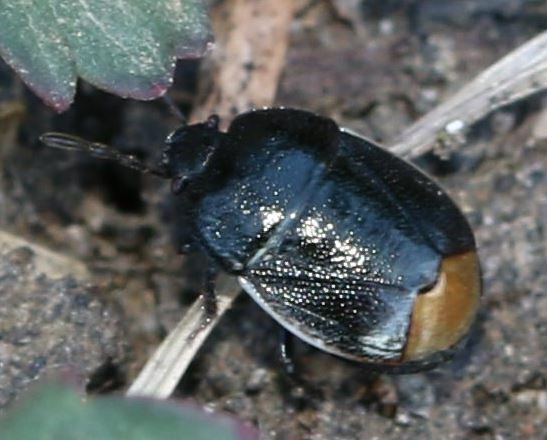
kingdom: Animalia
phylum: Arthropoda
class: Insecta
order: Hemiptera
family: Cydnidae
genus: Legnotus
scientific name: Legnotus limbosus
